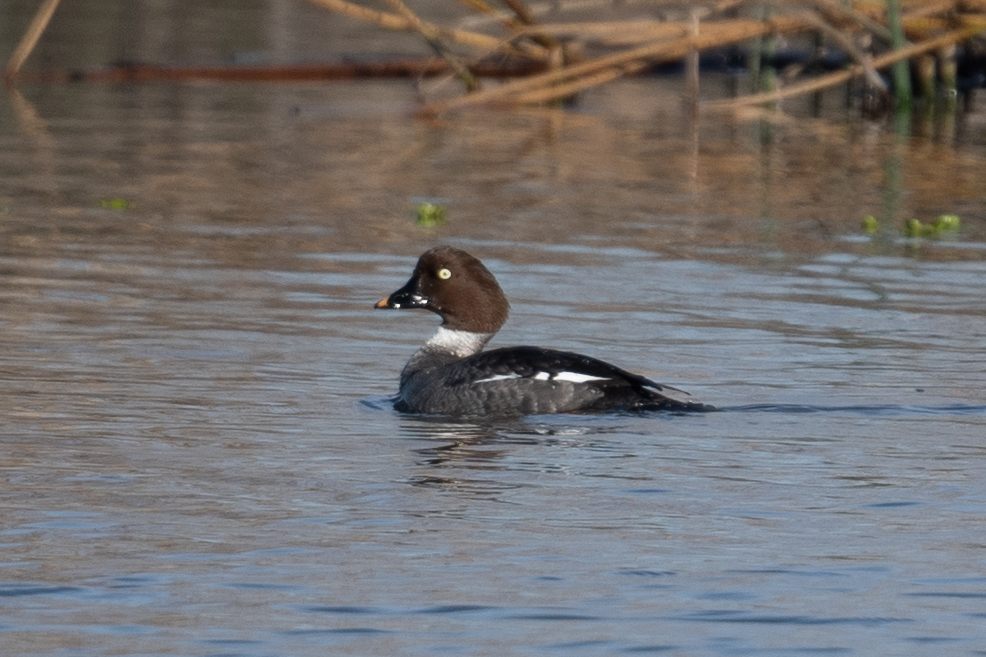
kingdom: Animalia
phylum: Chordata
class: Aves
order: Anseriformes
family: Anatidae
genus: Bucephala
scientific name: Bucephala clangula
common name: Common goldeneye
